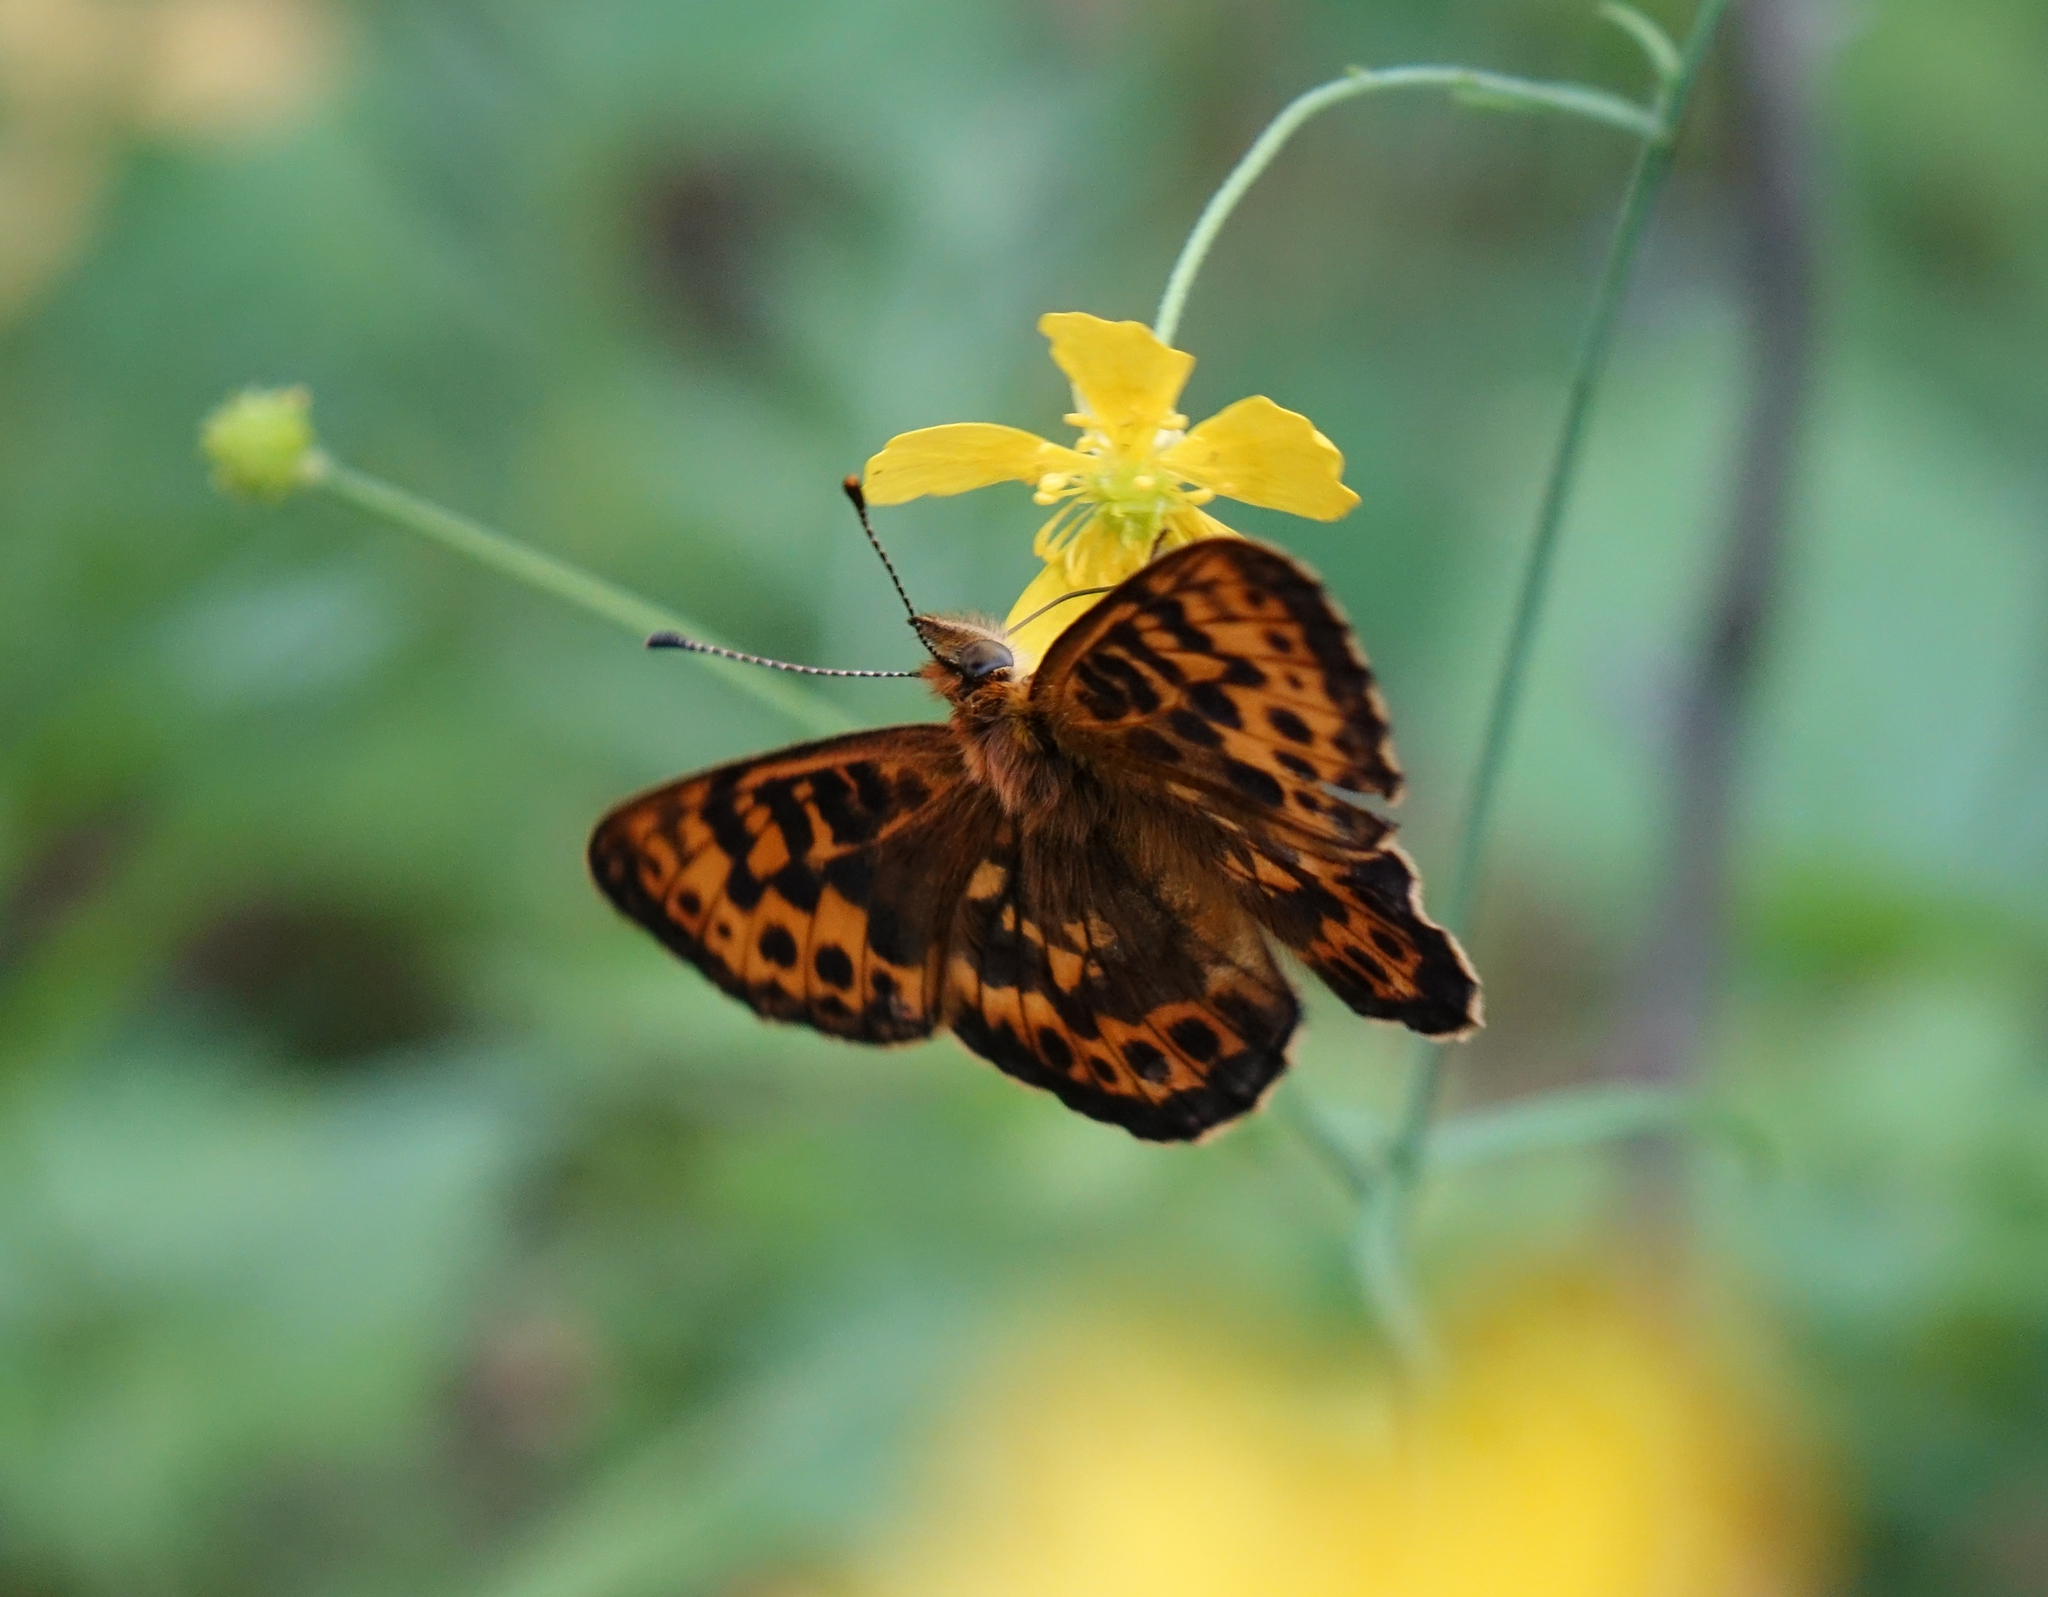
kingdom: Animalia
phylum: Arthropoda
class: Insecta
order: Lepidoptera
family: Nymphalidae
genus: Boloria
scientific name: Boloria thore
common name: Thor's fritillary
